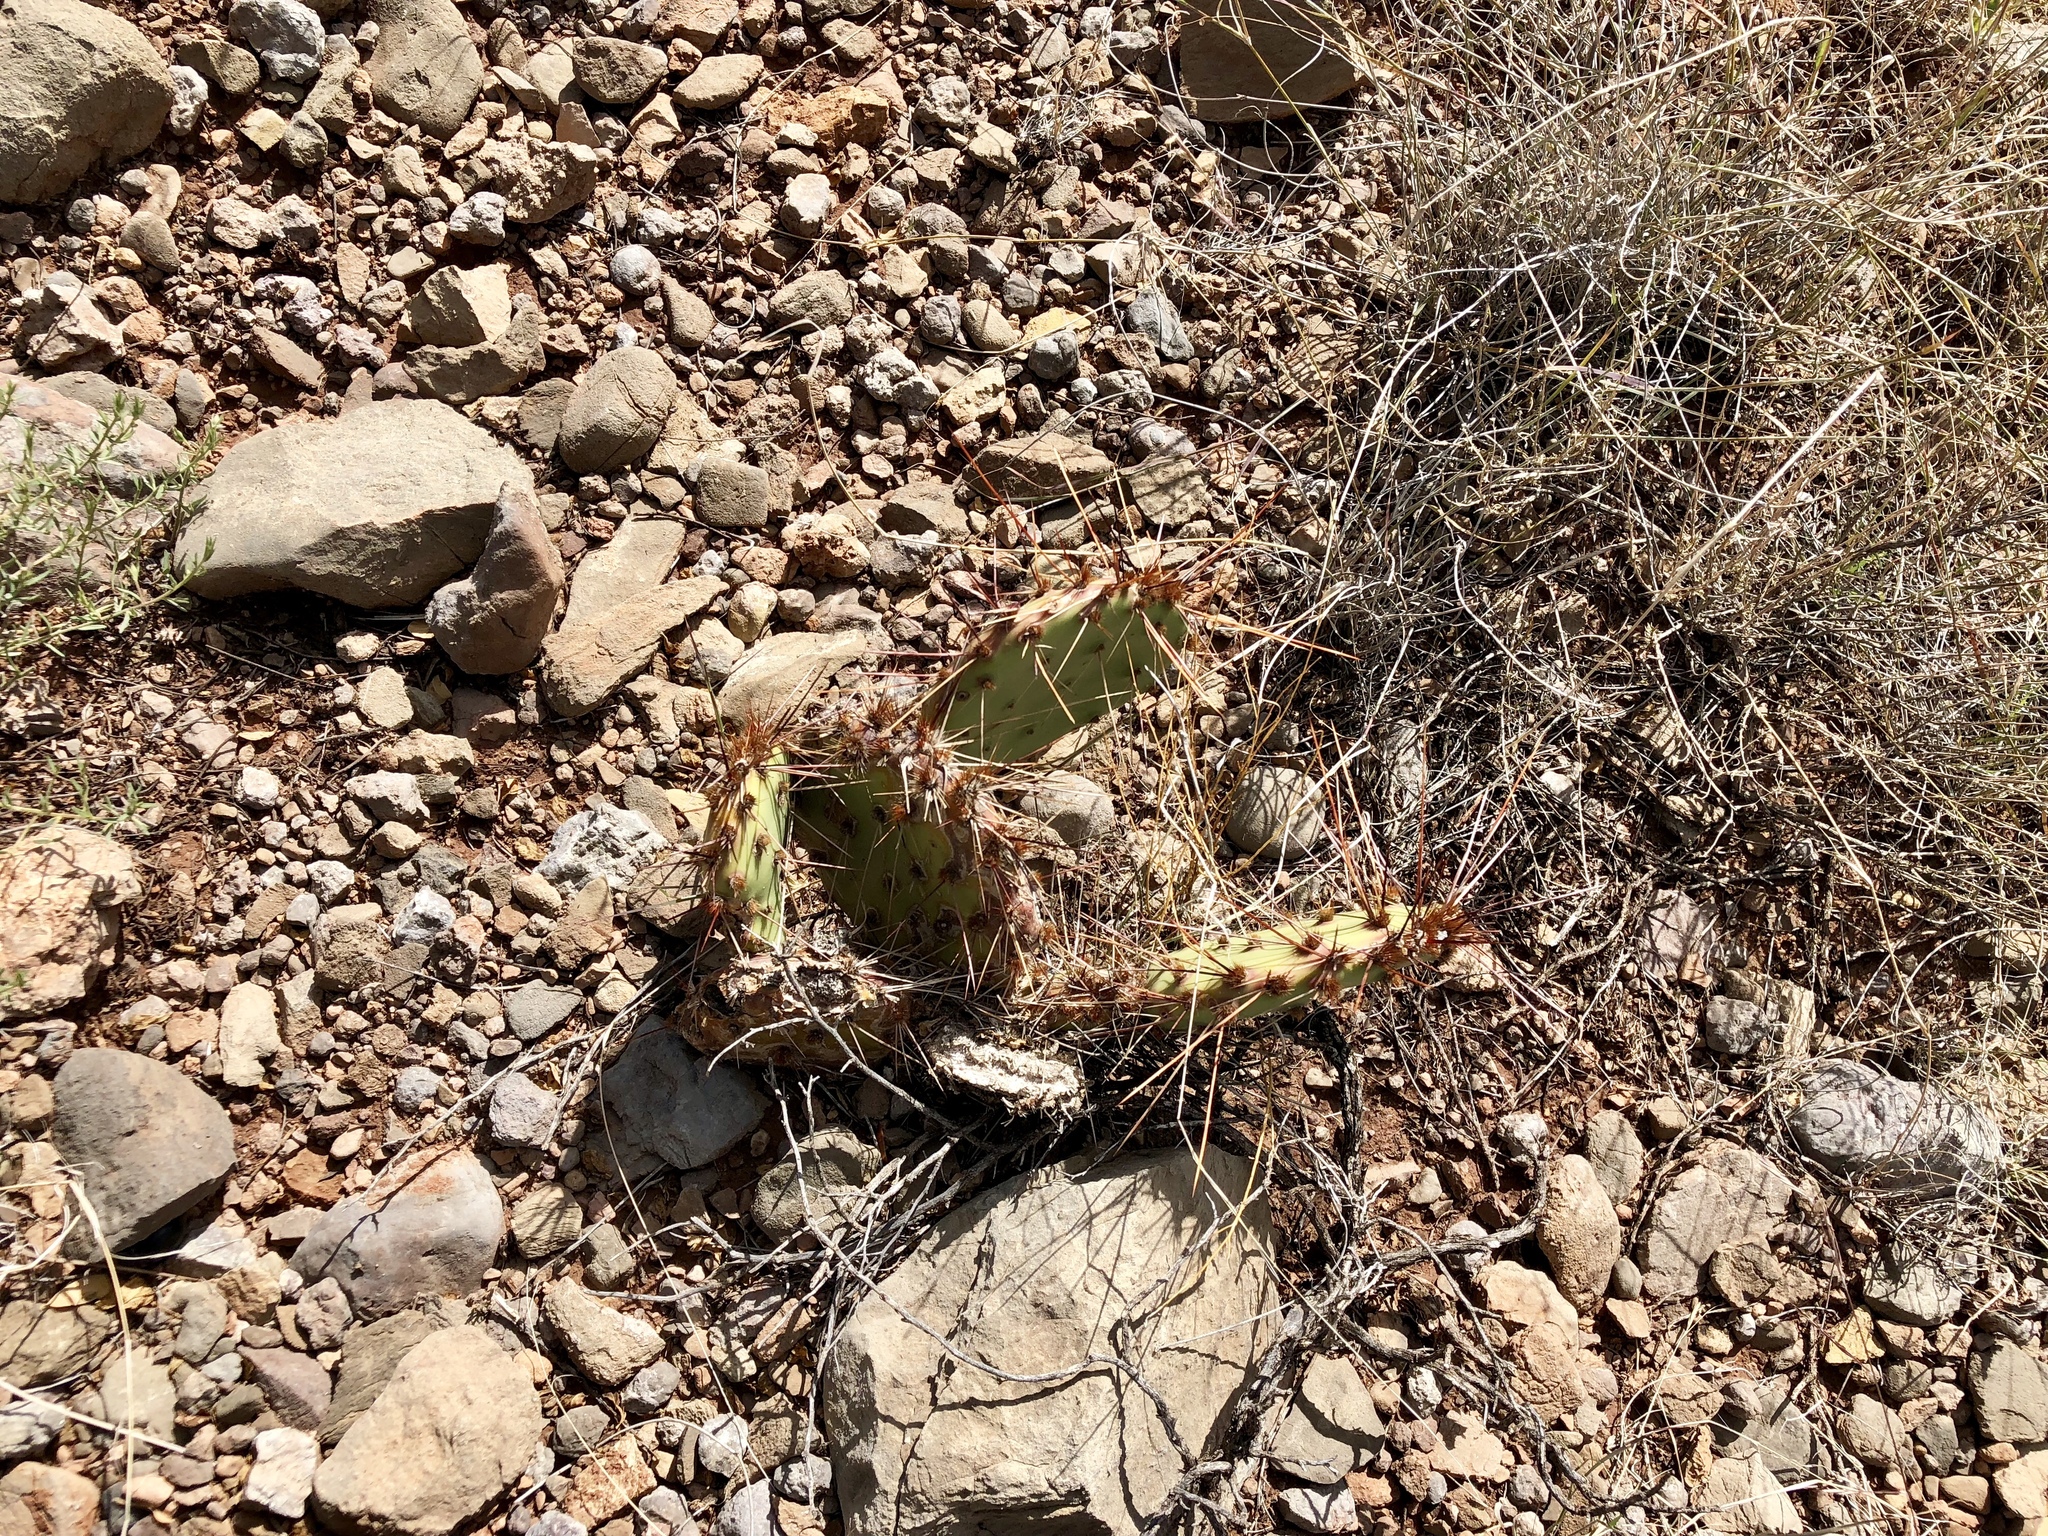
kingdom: Plantae
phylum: Tracheophyta
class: Magnoliopsida
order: Caryophyllales
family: Cactaceae
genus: Opuntia
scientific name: Opuntia phaeacantha
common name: New mexico prickly-pear
